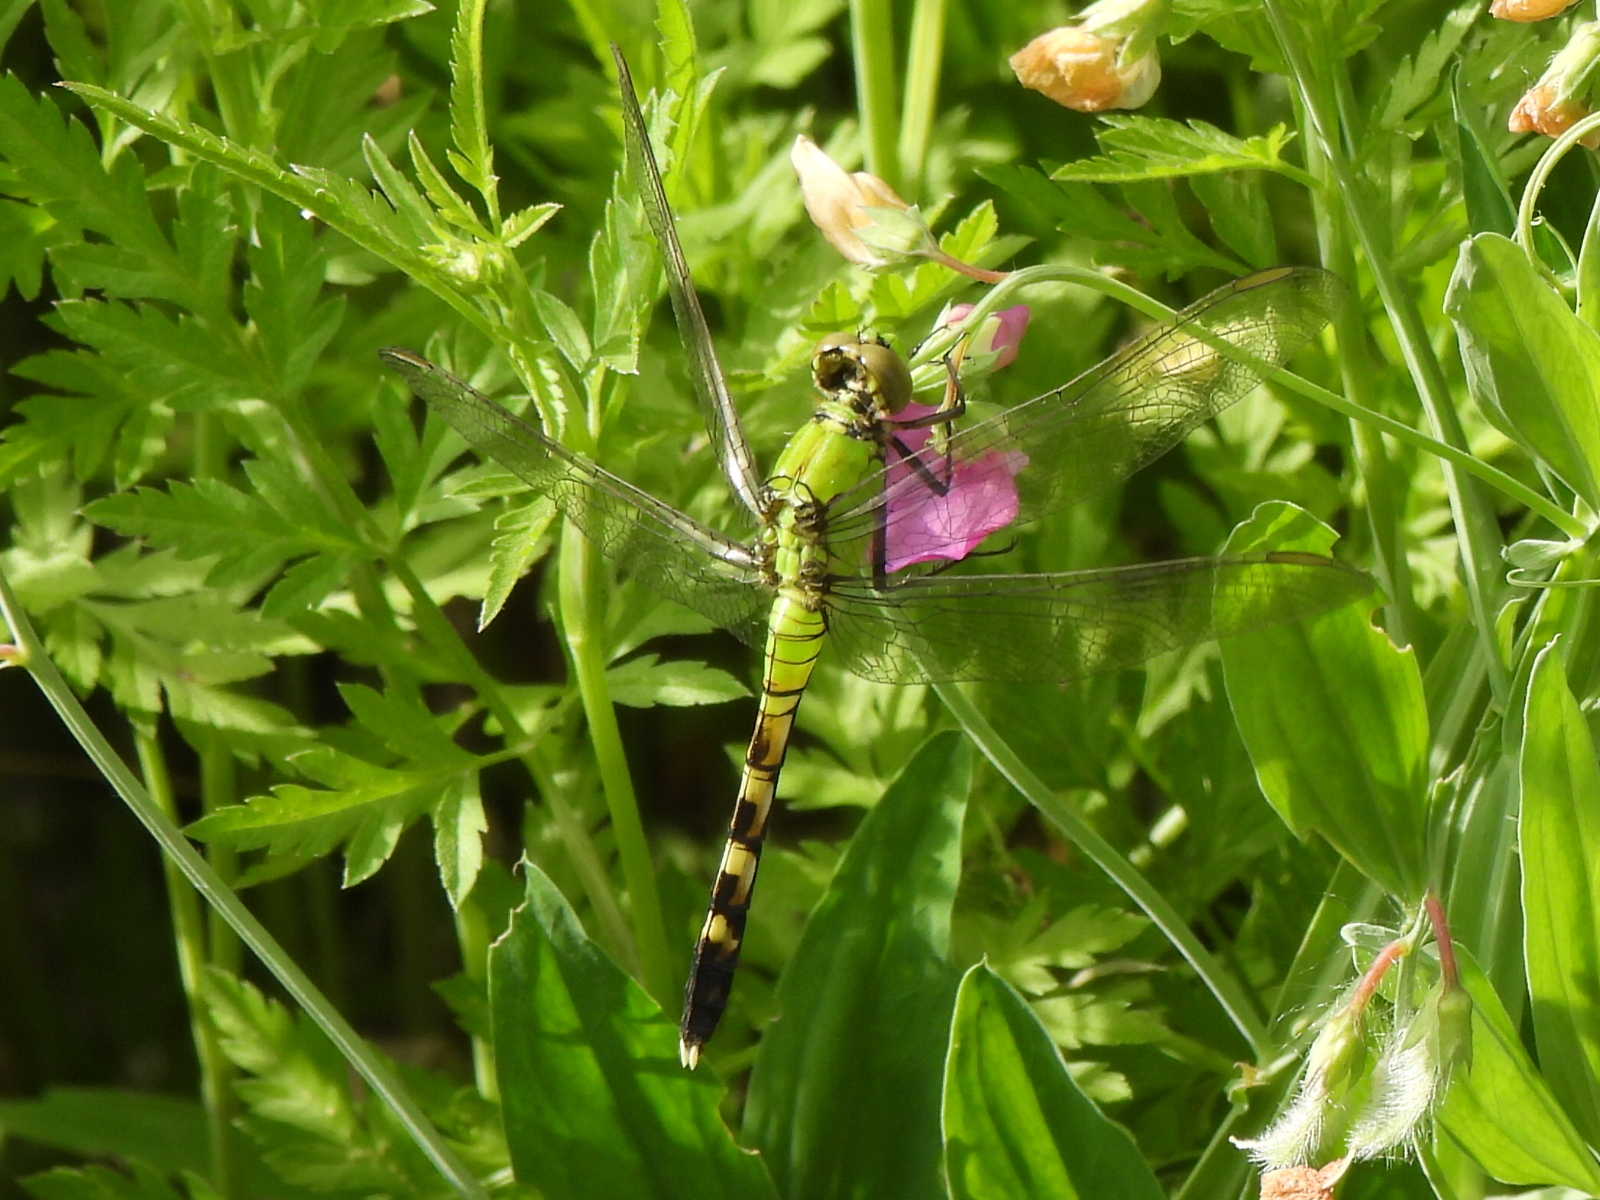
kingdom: Animalia
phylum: Arthropoda
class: Insecta
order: Odonata
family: Libellulidae
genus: Erythemis
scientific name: Erythemis simplicicollis
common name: Eastern pondhawk
